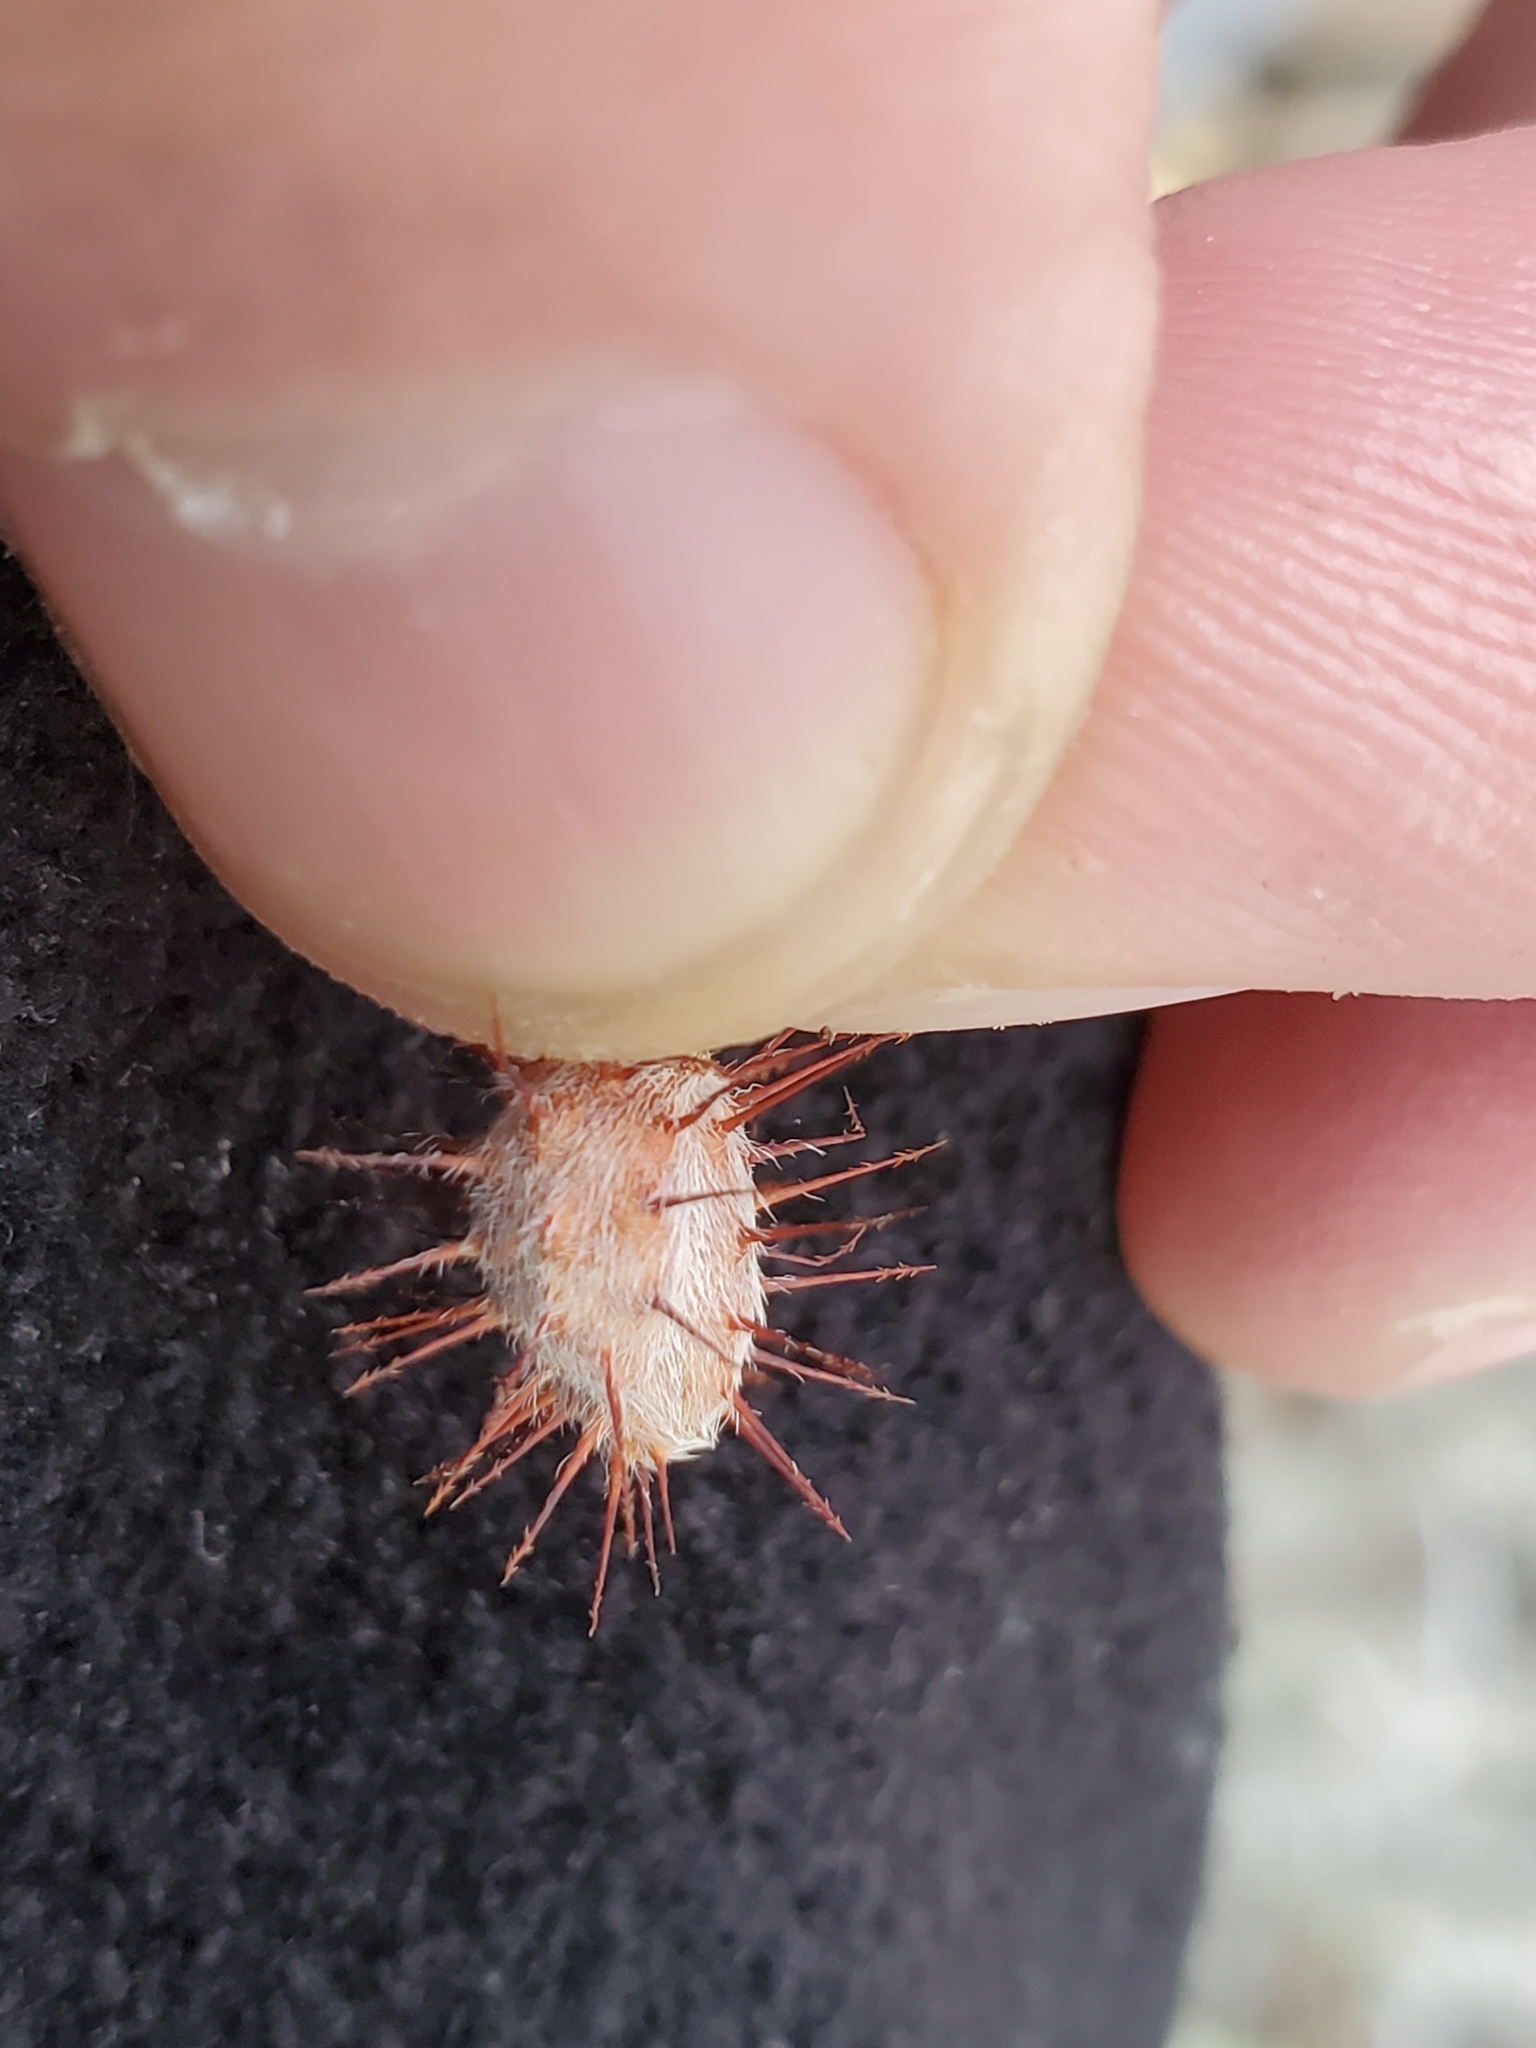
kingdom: Plantae
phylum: Tracheophyta
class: Magnoliopsida
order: Zygophyllales
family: Krameriaceae
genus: Krameria
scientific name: Krameria erecta
